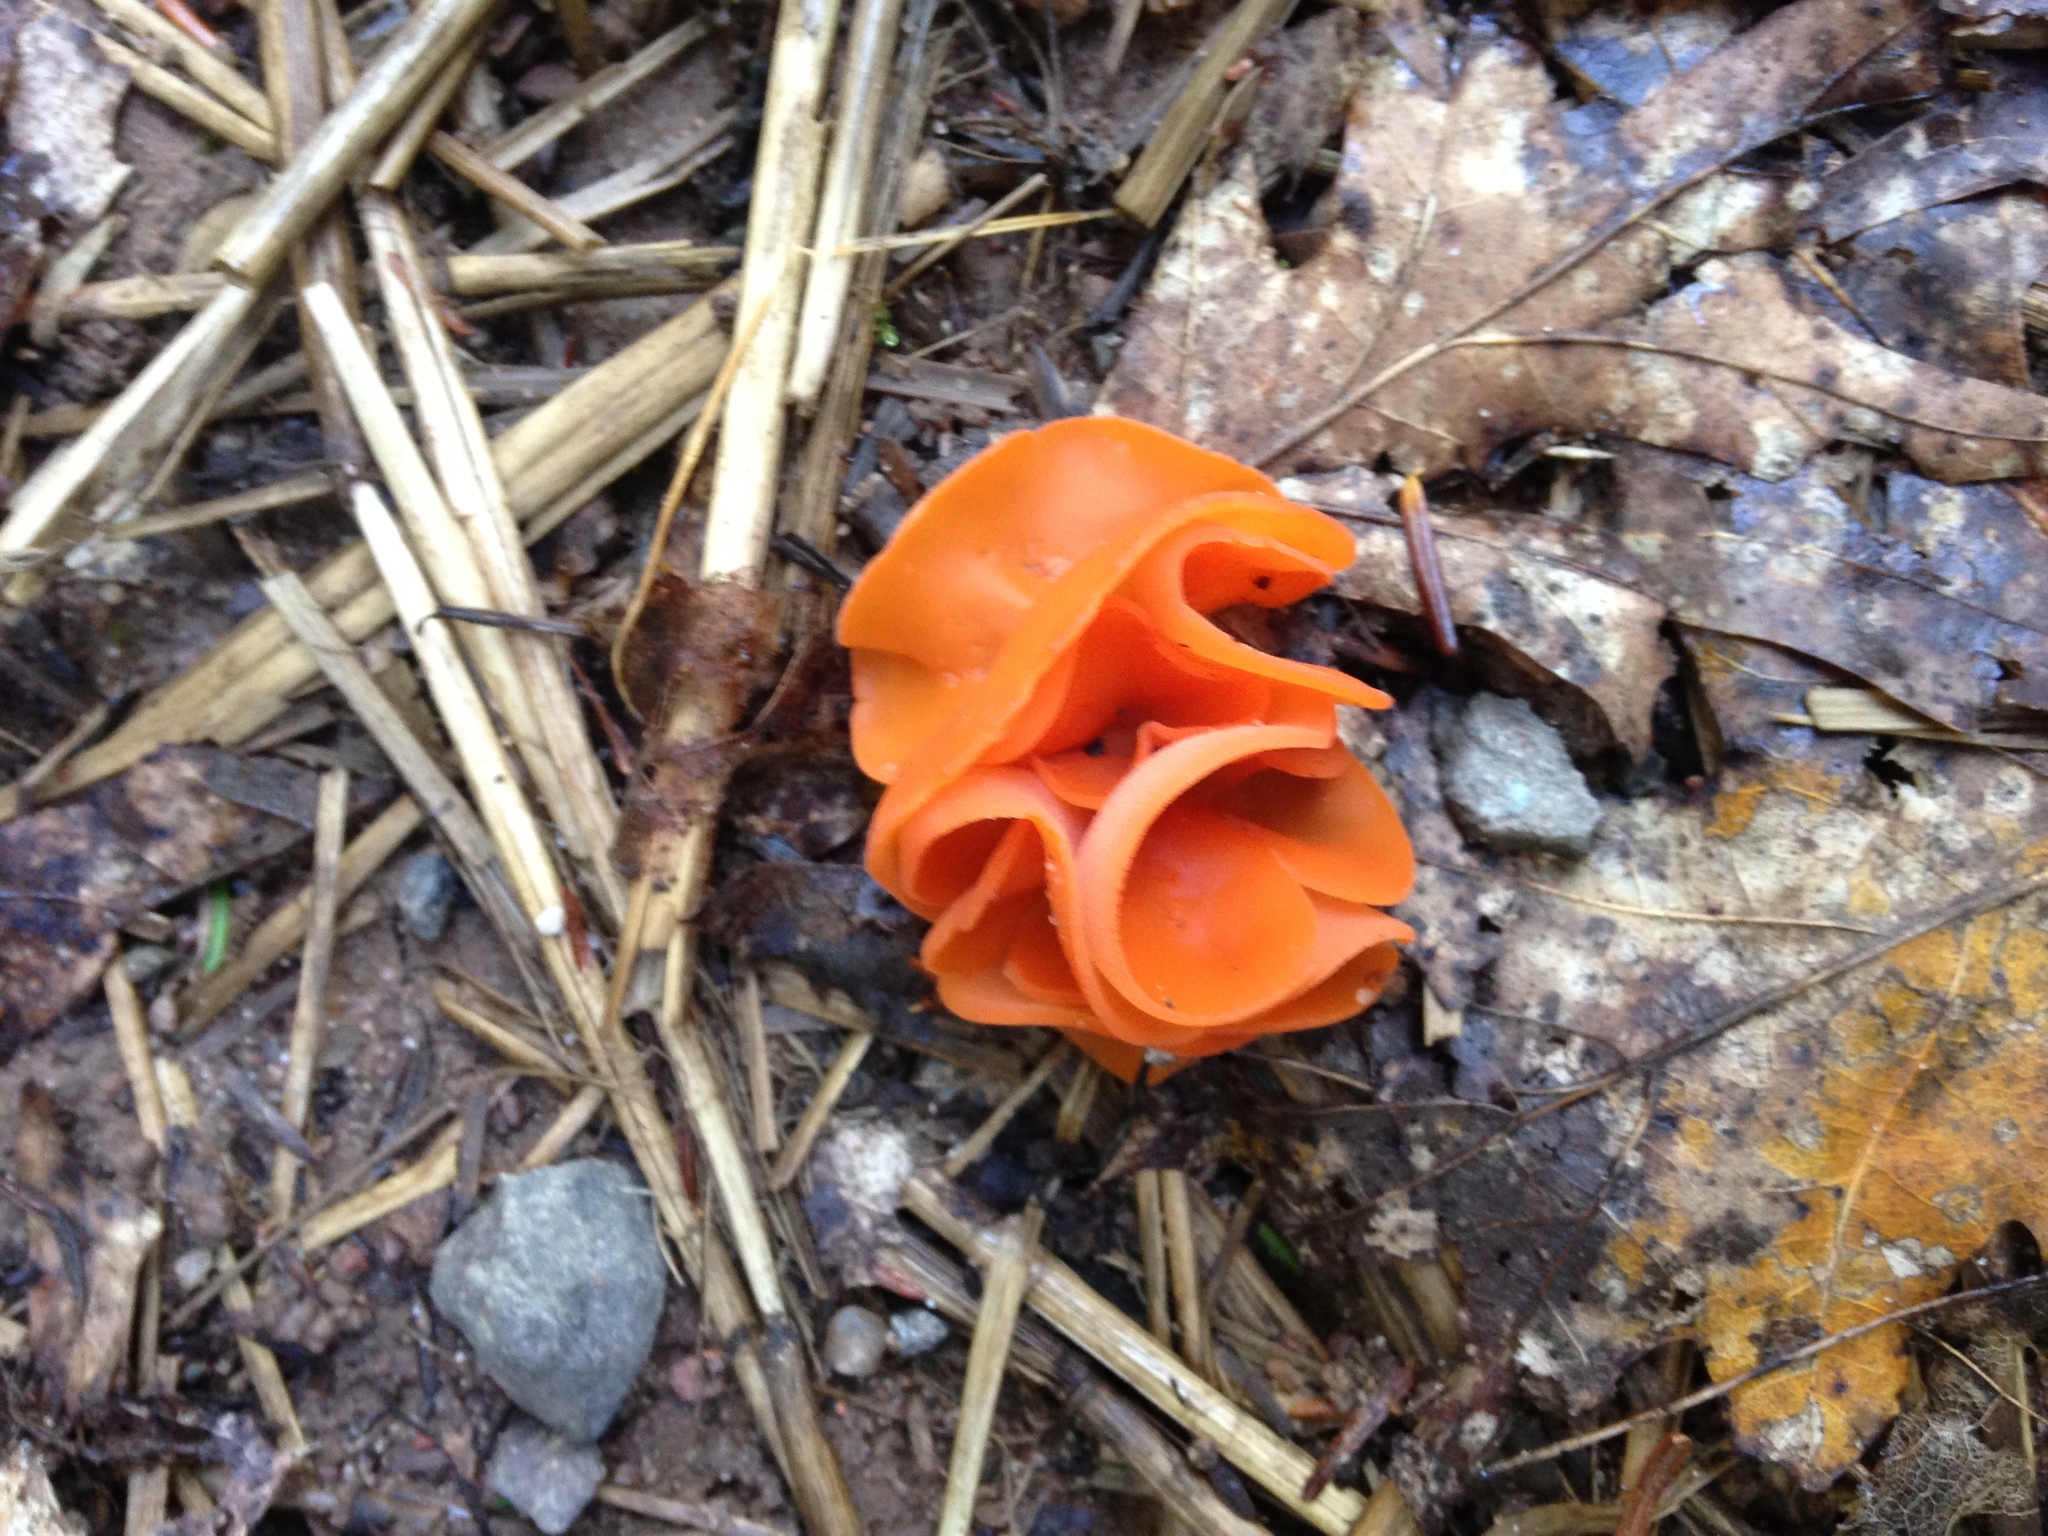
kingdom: Fungi
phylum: Ascomycota
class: Pezizomycetes
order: Pezizales
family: Pyronemataceae
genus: Aleuria
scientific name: Aleuria aurantia
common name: Orange peel fungus
